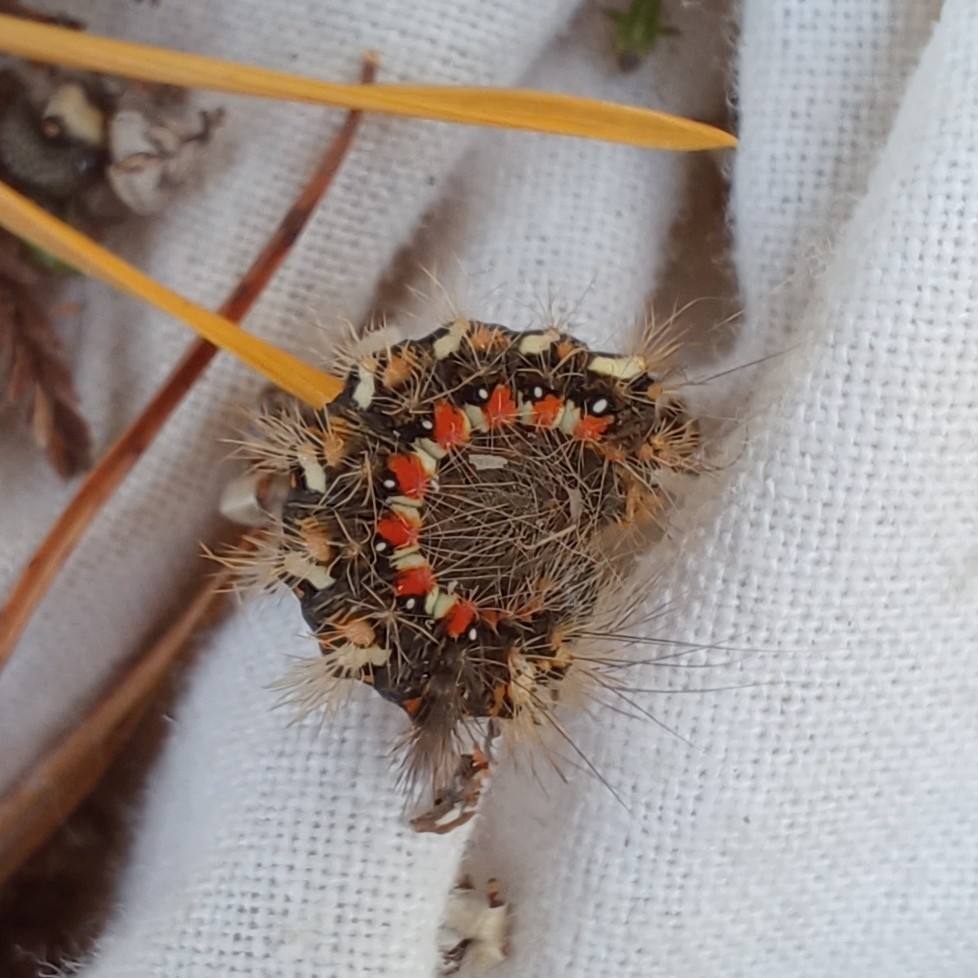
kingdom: Animalia
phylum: Arthropoda
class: Insecta
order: Lepidoptera
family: Noctuidae
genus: Acronicta
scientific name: Acronicta rumicis
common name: Knot grass
